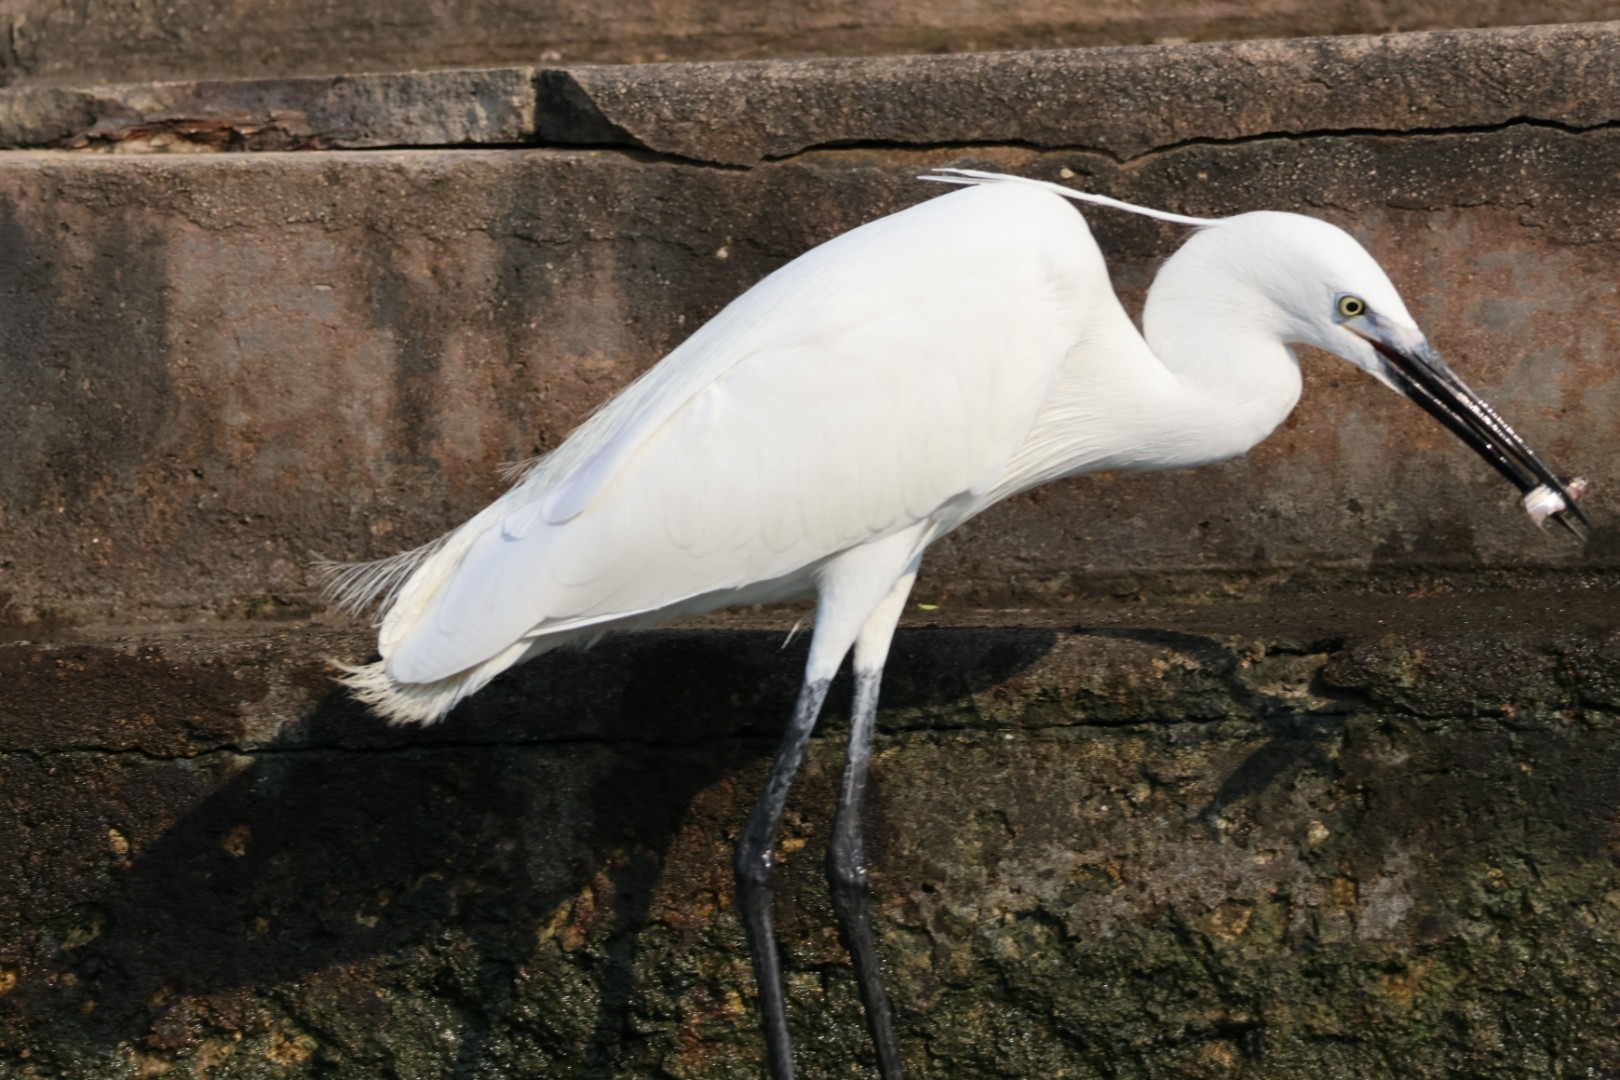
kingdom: Animalia
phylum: Chordata
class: Aves
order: Pelecaniformes
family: Ardeidae
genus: Egretta
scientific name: Egretta garzetta
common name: Little egret
